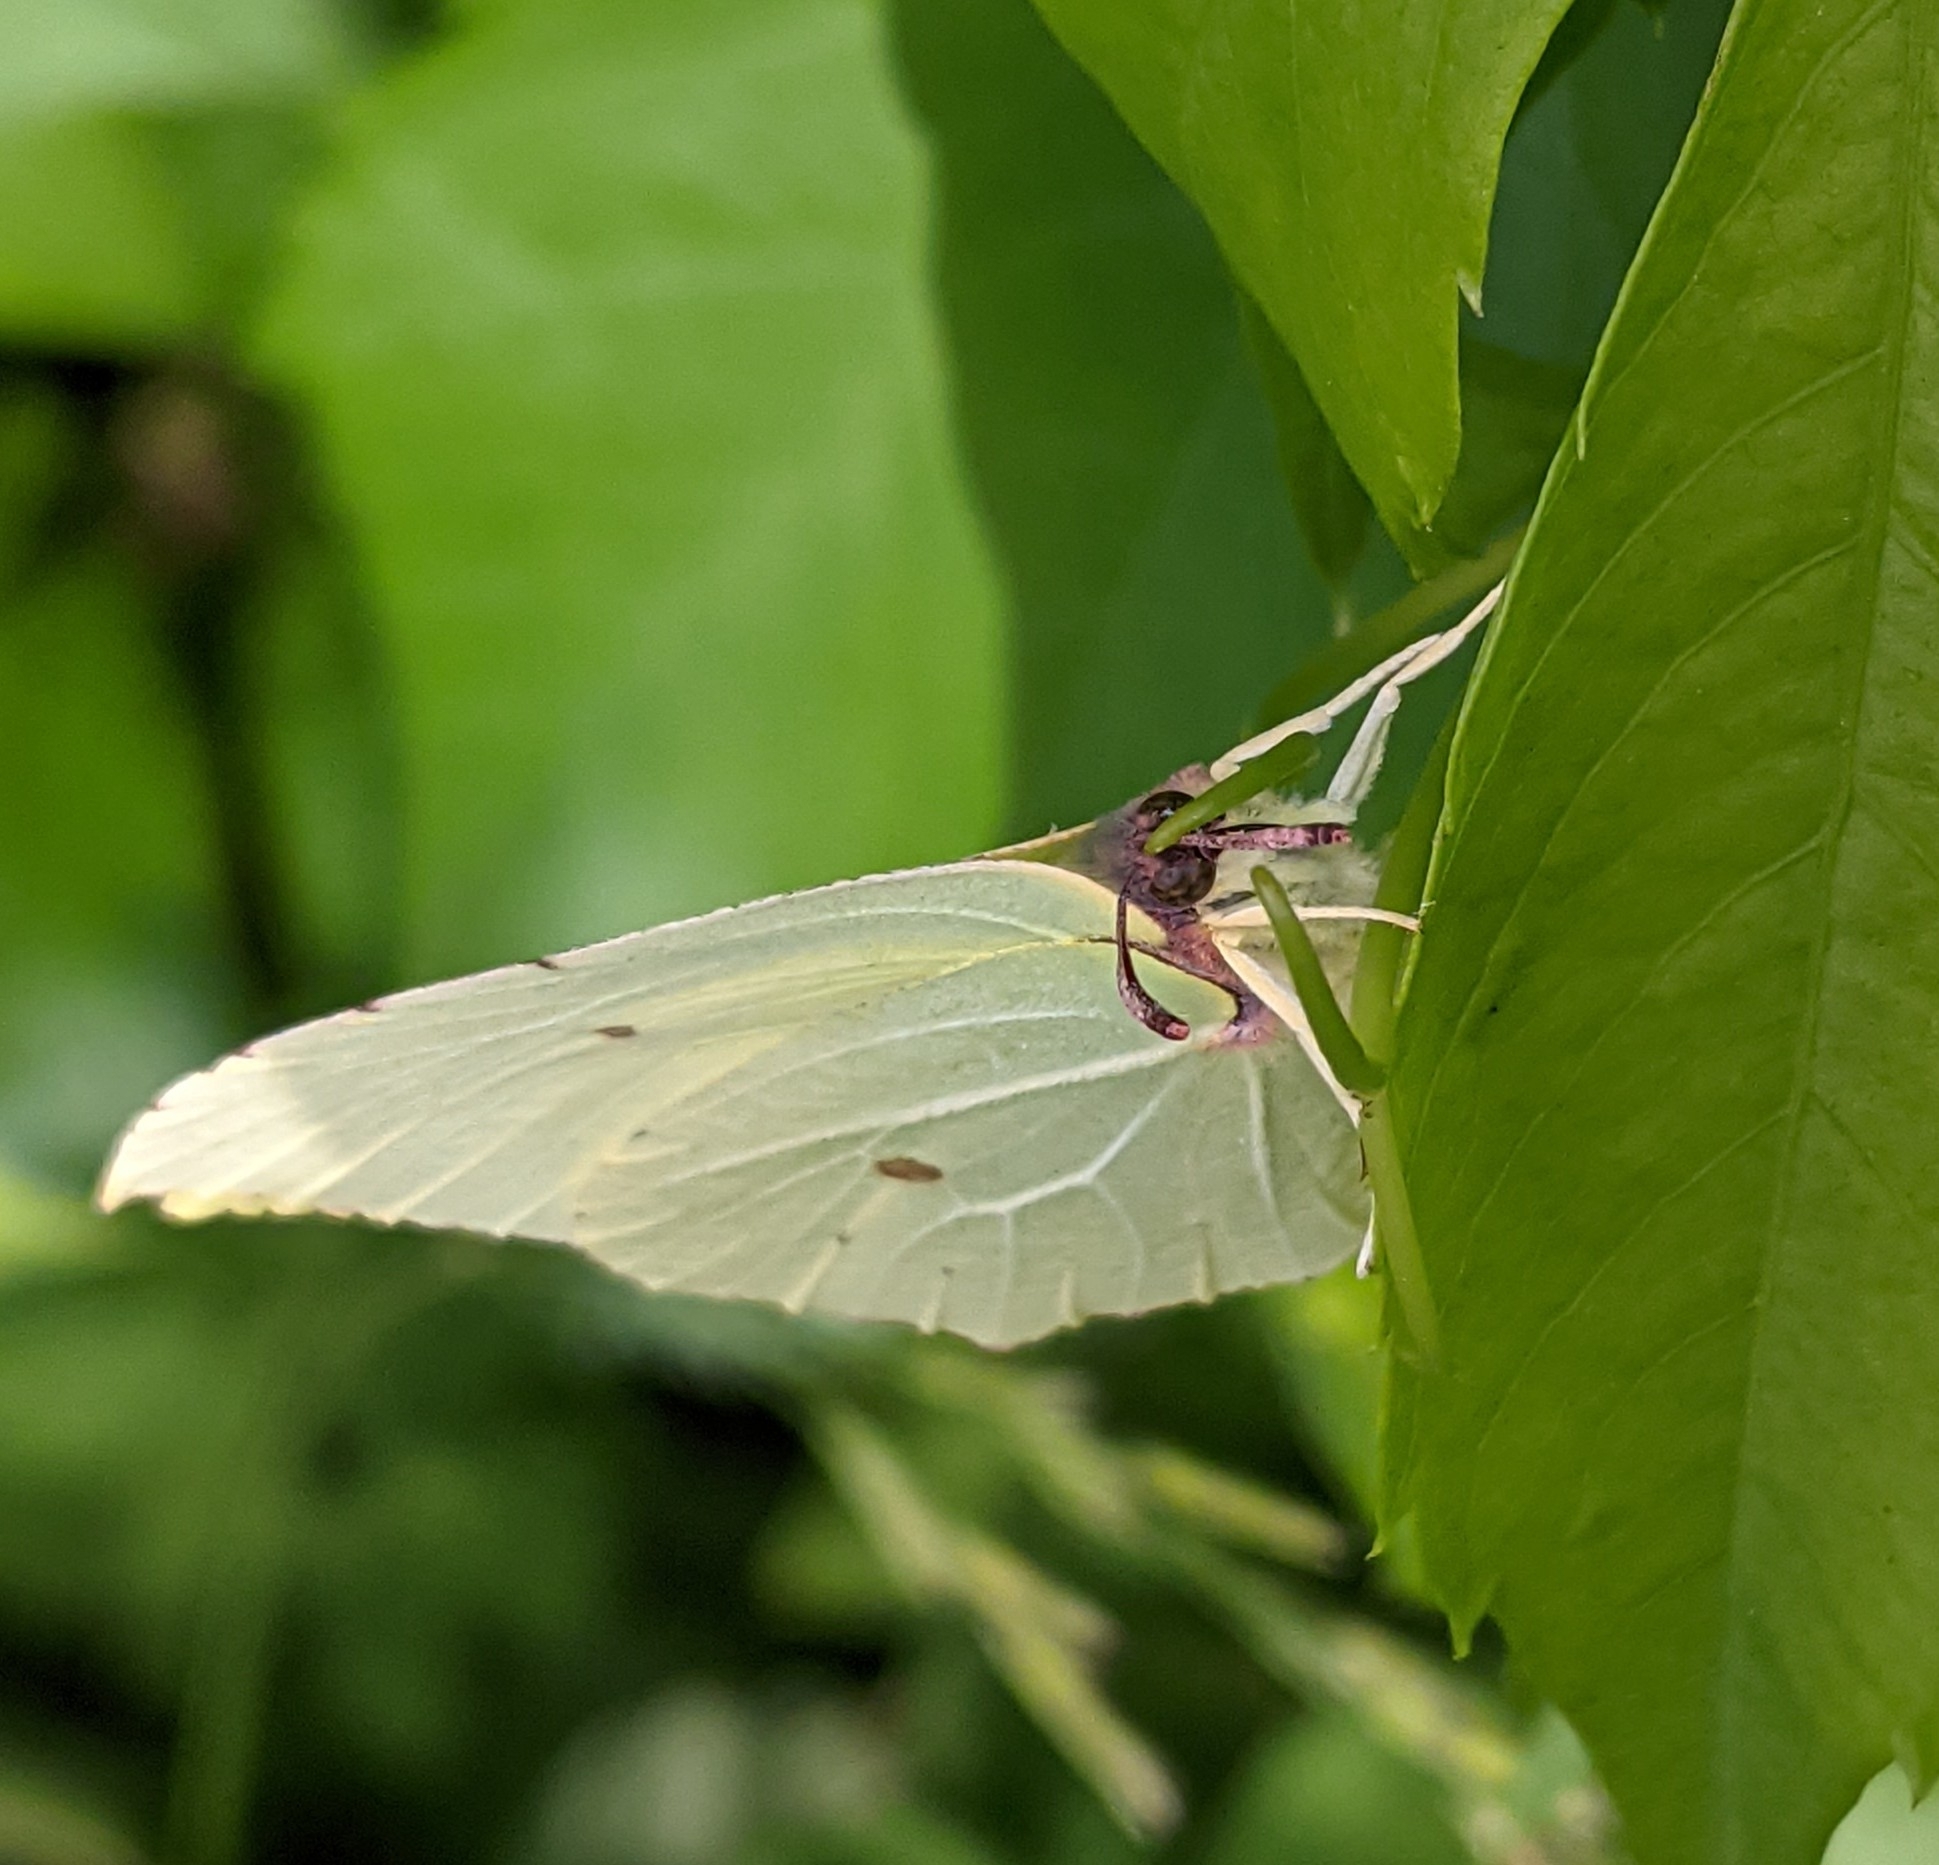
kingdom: Animalia
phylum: Arthropoda
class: Insecta
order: Lepidoptera
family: Pieridae
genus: Gonepteryx
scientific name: Gonepteryx rhamni
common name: Brimstone
